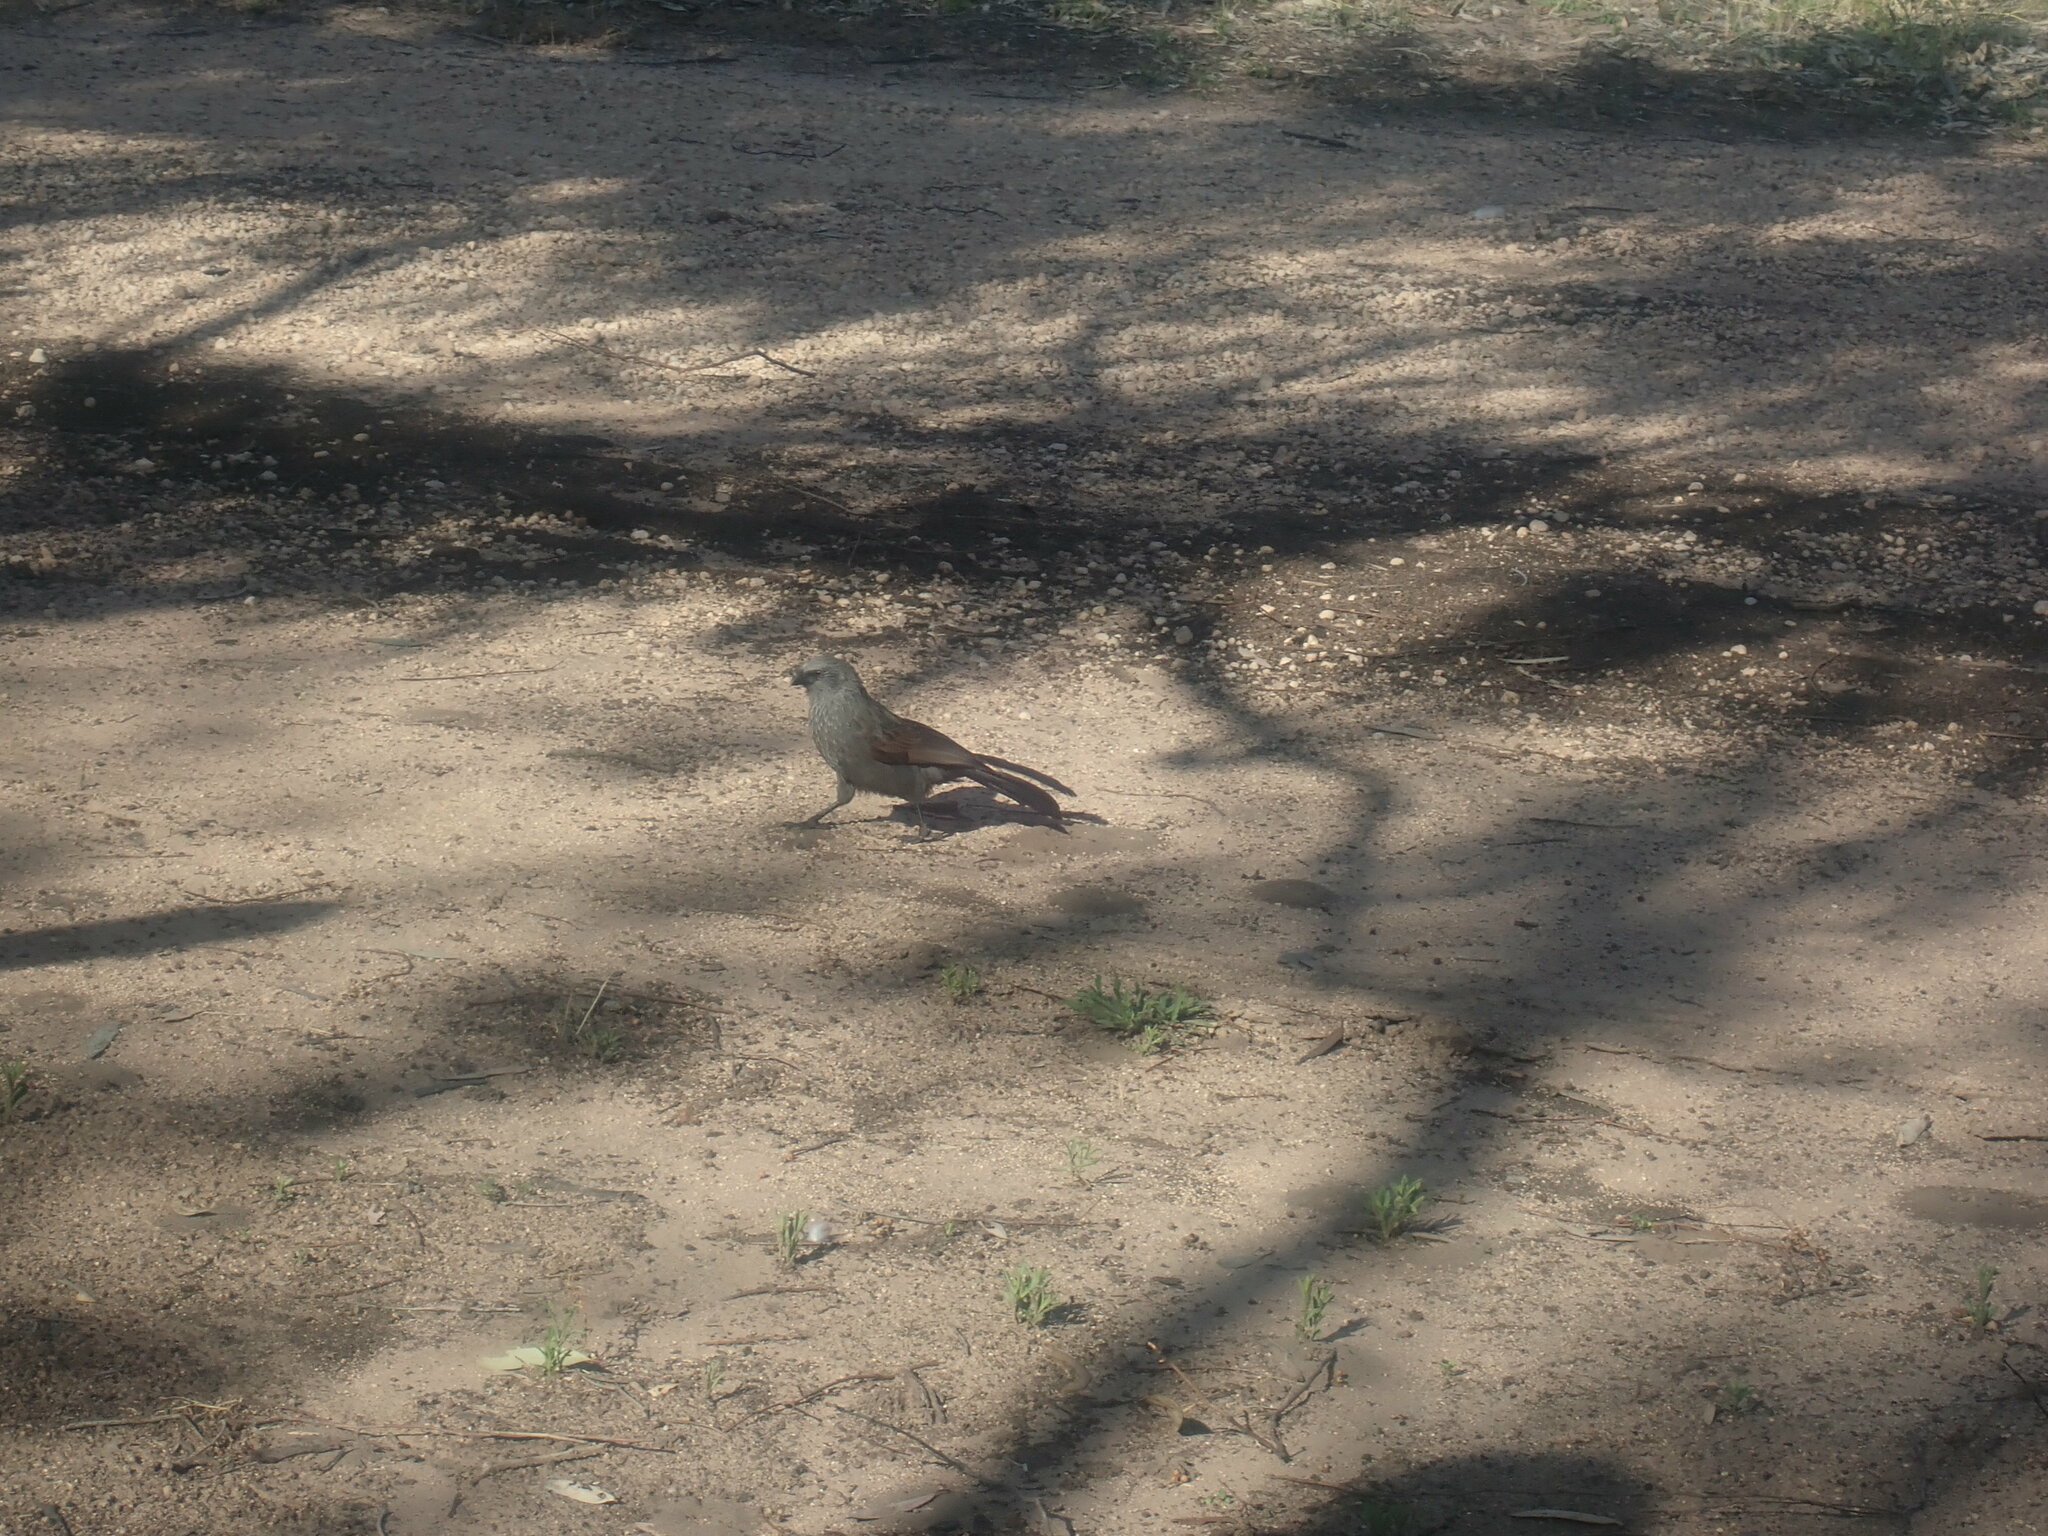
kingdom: Animalia
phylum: Chordata
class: Aves
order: Passeriformes
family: Corcoracidae
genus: Struthidea
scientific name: Struthidea cinerea
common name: Apostlebird
